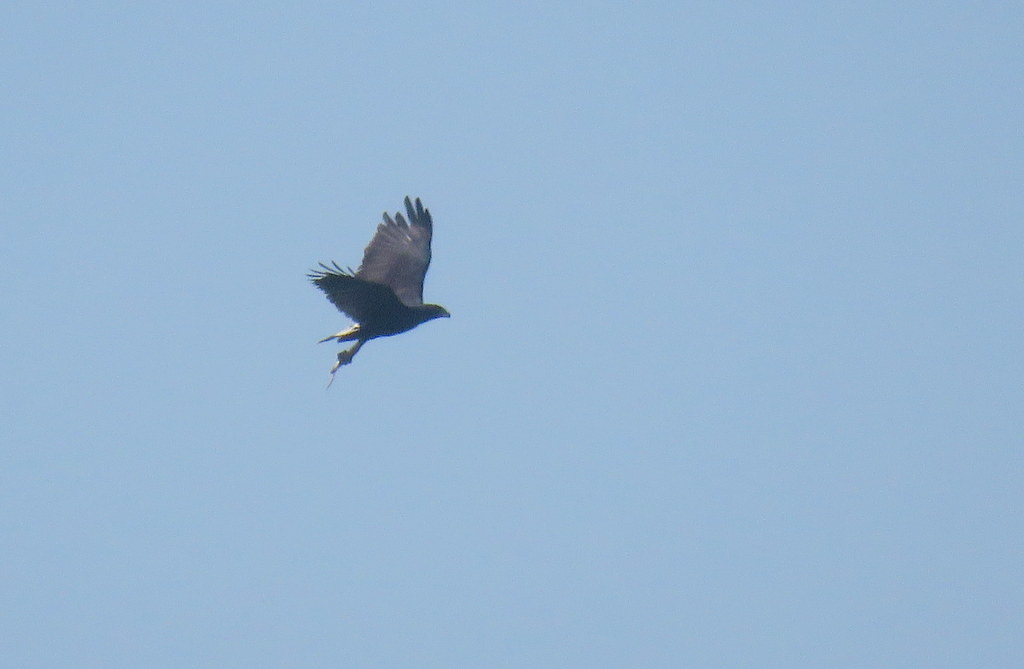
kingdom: Animalia
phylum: Chordata
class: Aves
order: Accipitriformes
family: Accipitridae
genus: Buteogallus
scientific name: Buteogallus urubitinga
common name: Great black hawk
